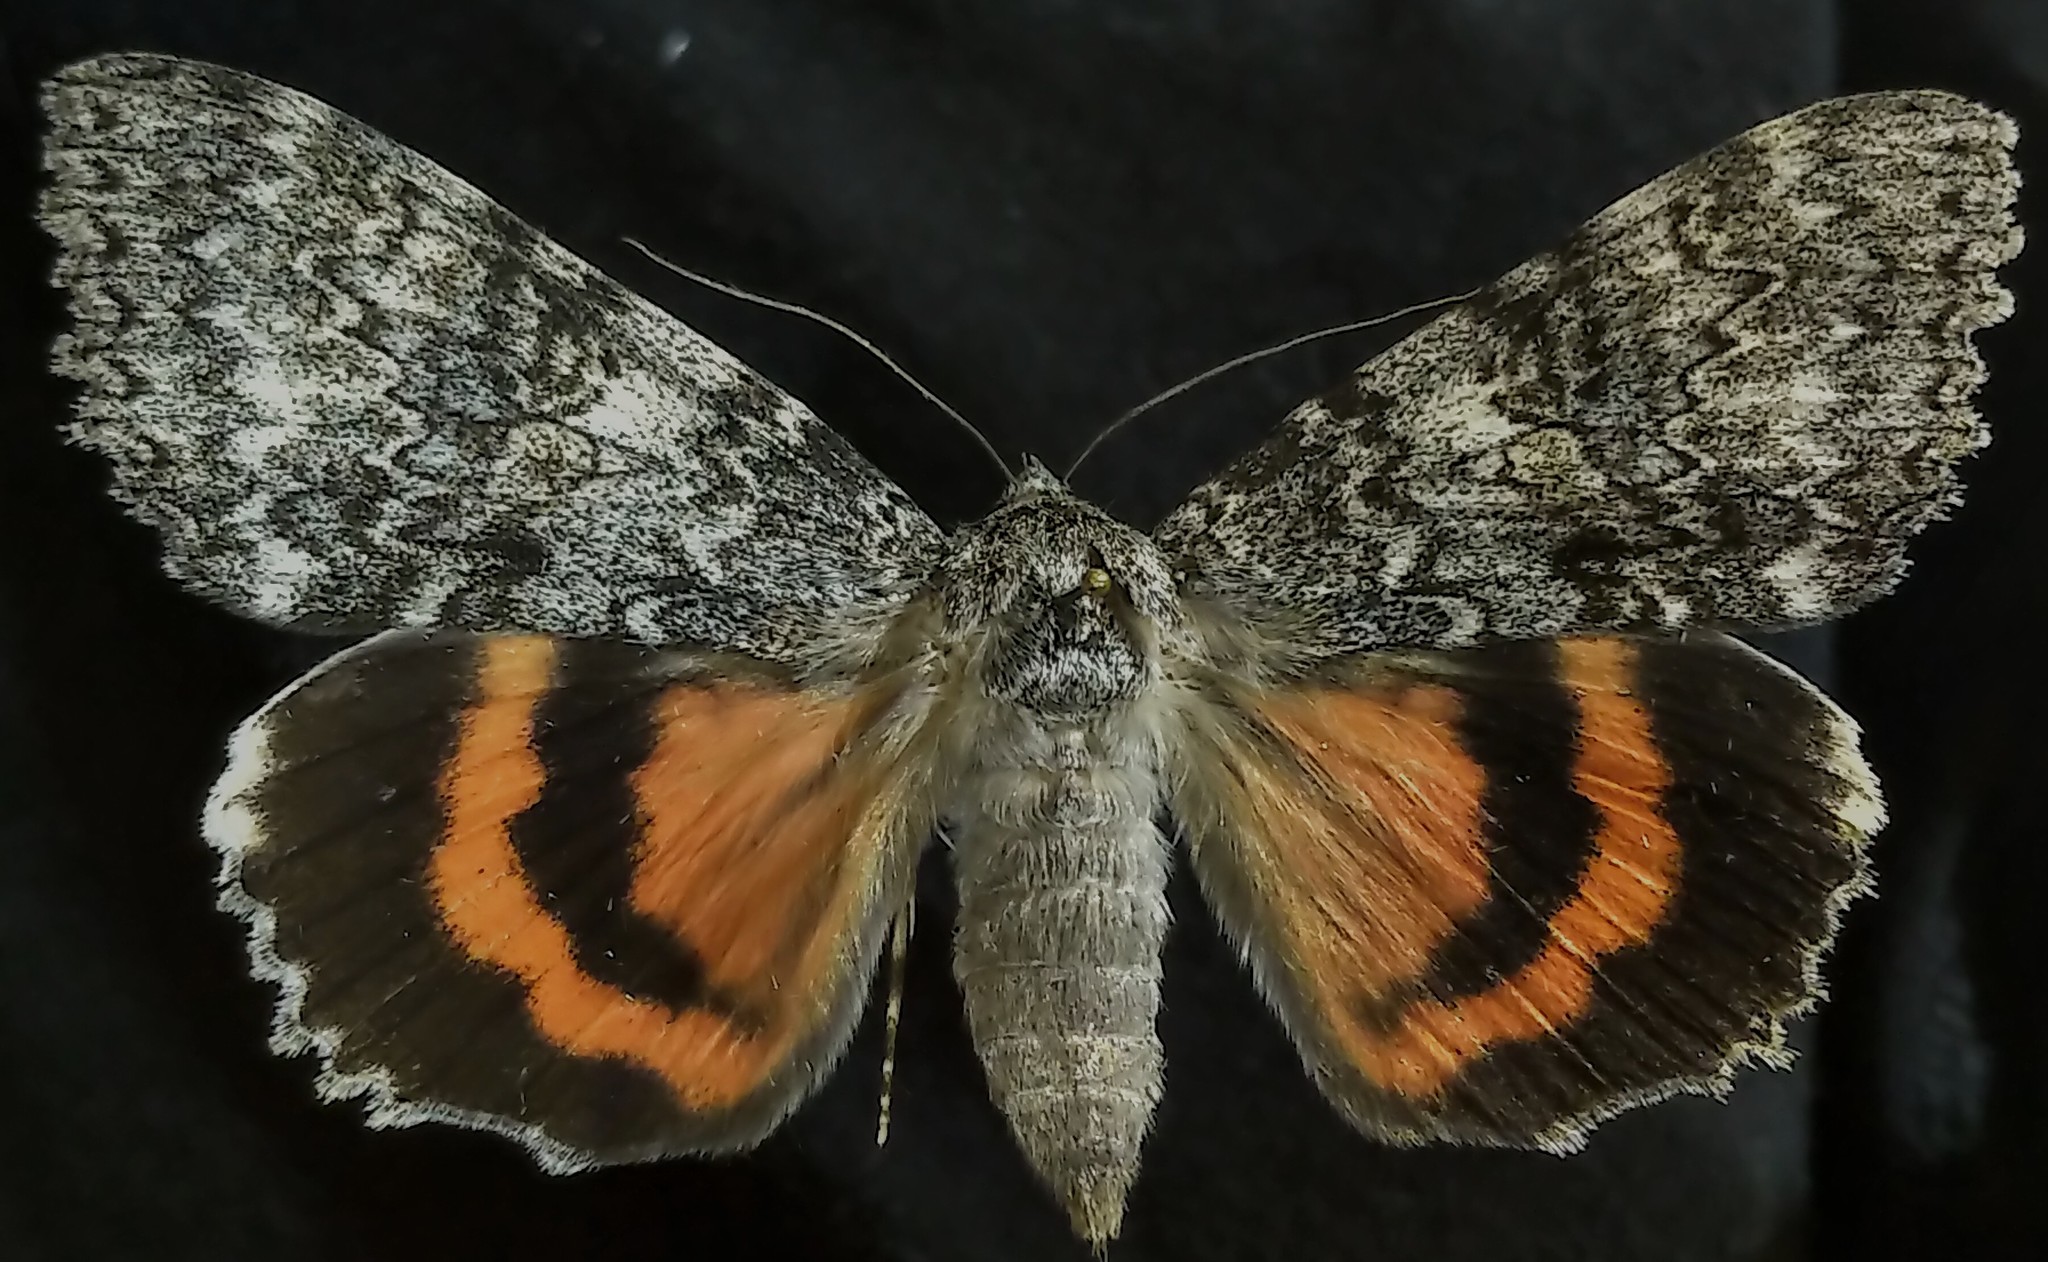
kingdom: Animalia
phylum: Arthropoda
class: Insecta
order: Lepidoptera
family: Erebidae
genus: Catocala
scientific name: Catocala unijuga
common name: Once-married underwing
